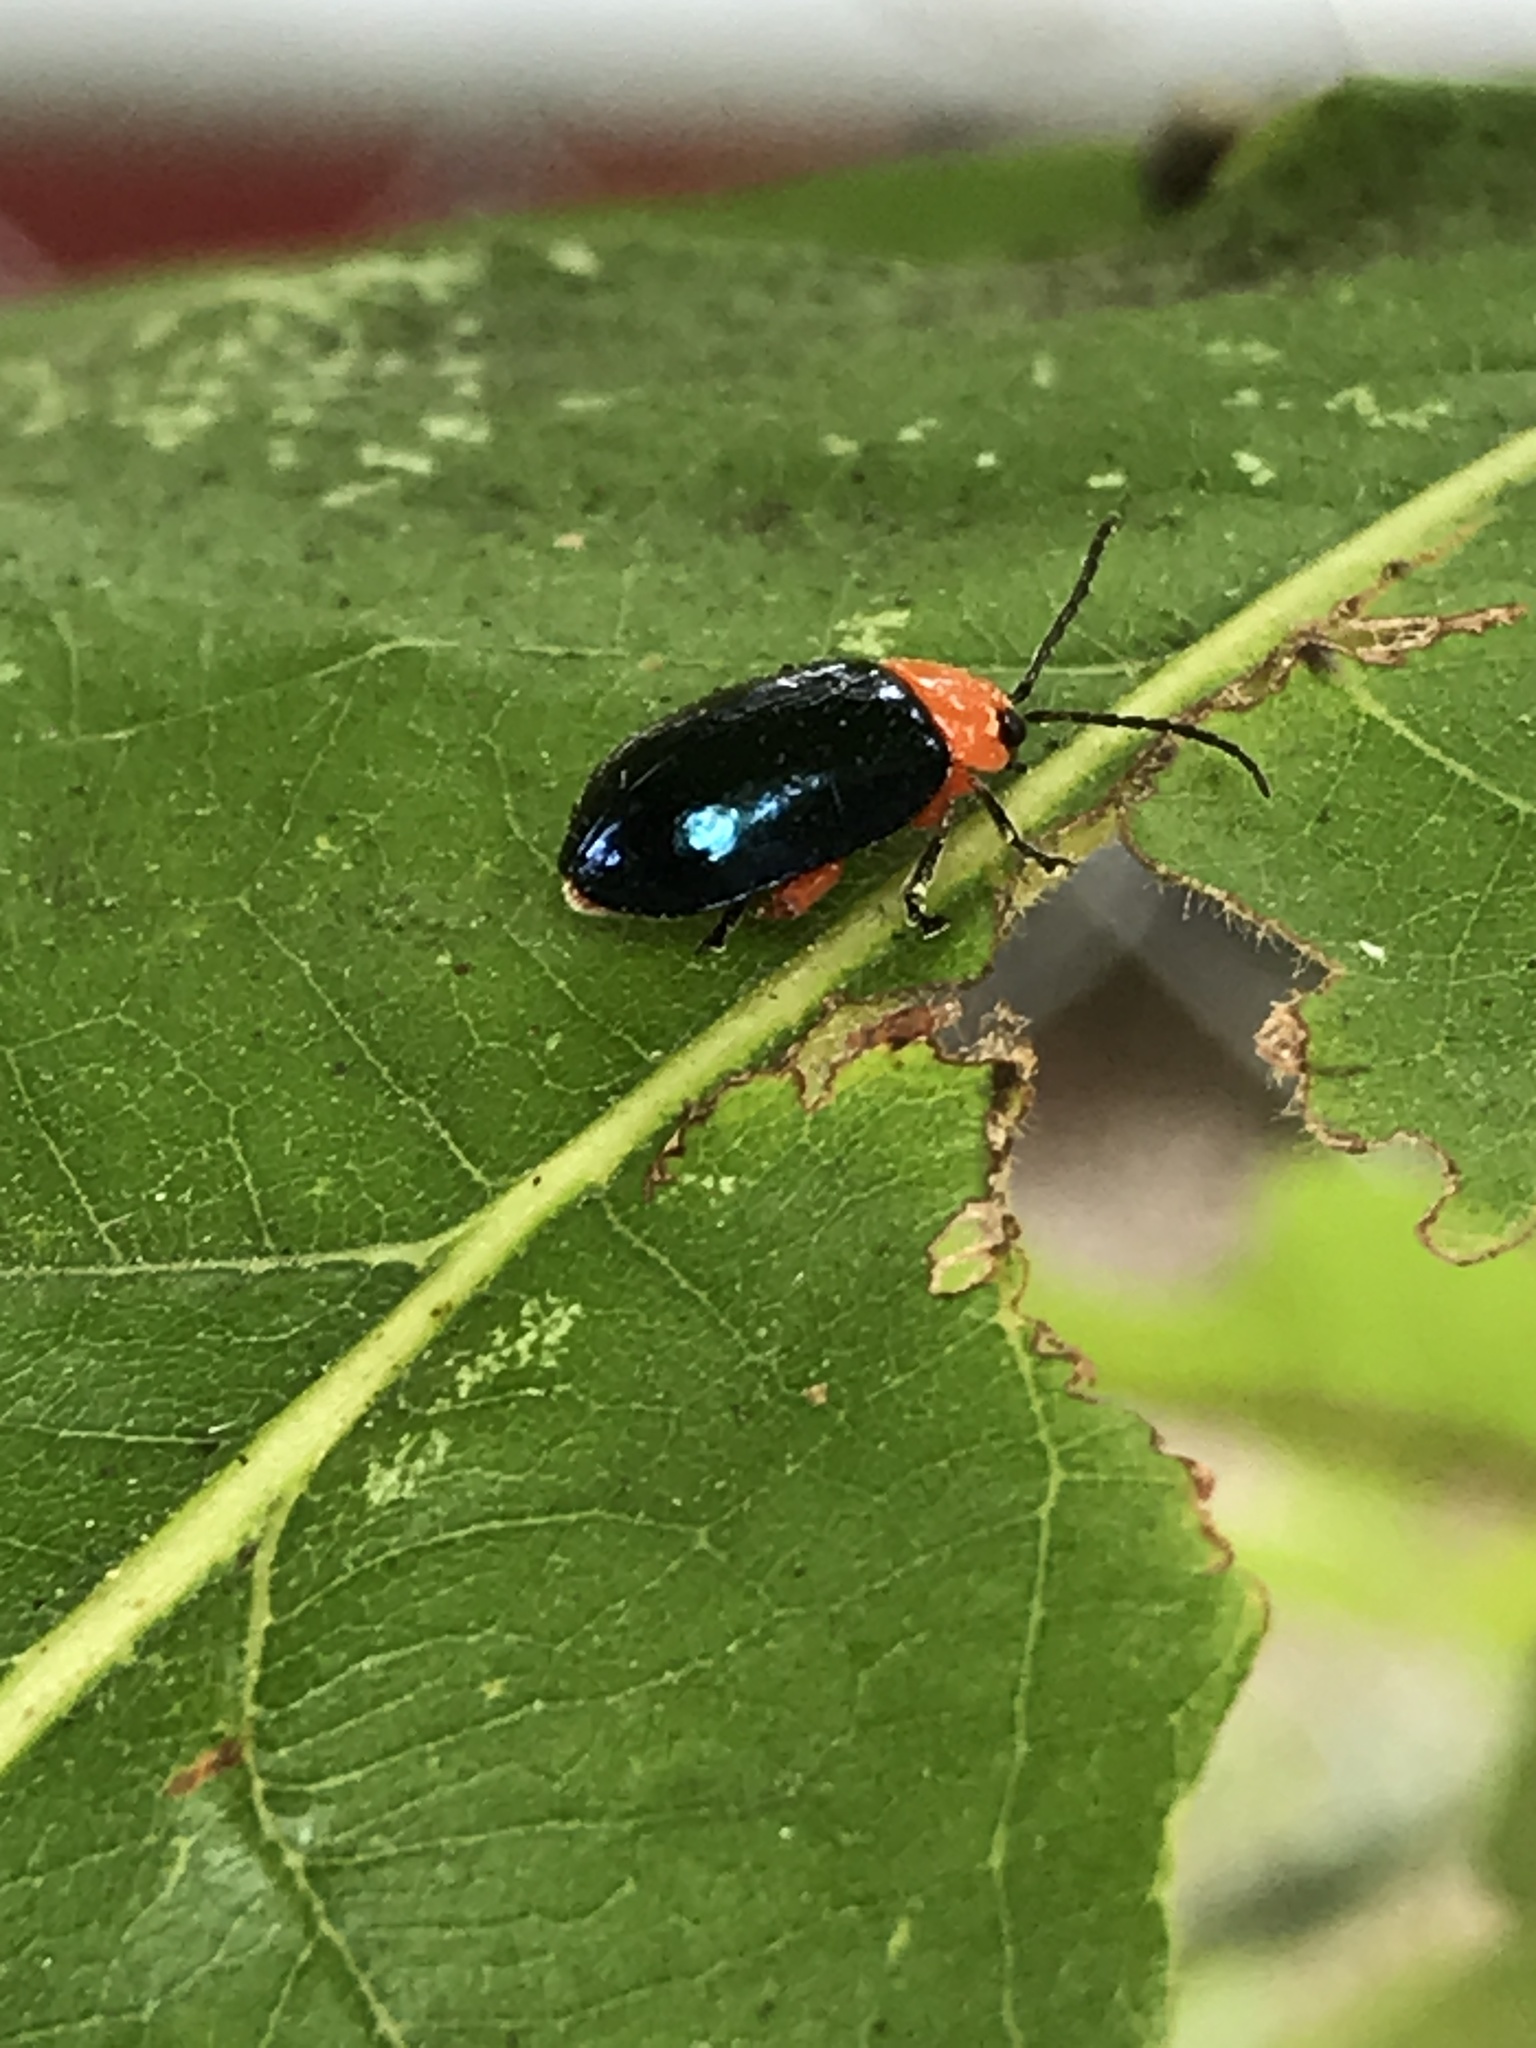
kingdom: Animalia
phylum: Arthropoda
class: Insecta
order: Coleoptera
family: Chrysomelidae
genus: Asphaera
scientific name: Asphaera lustrans
